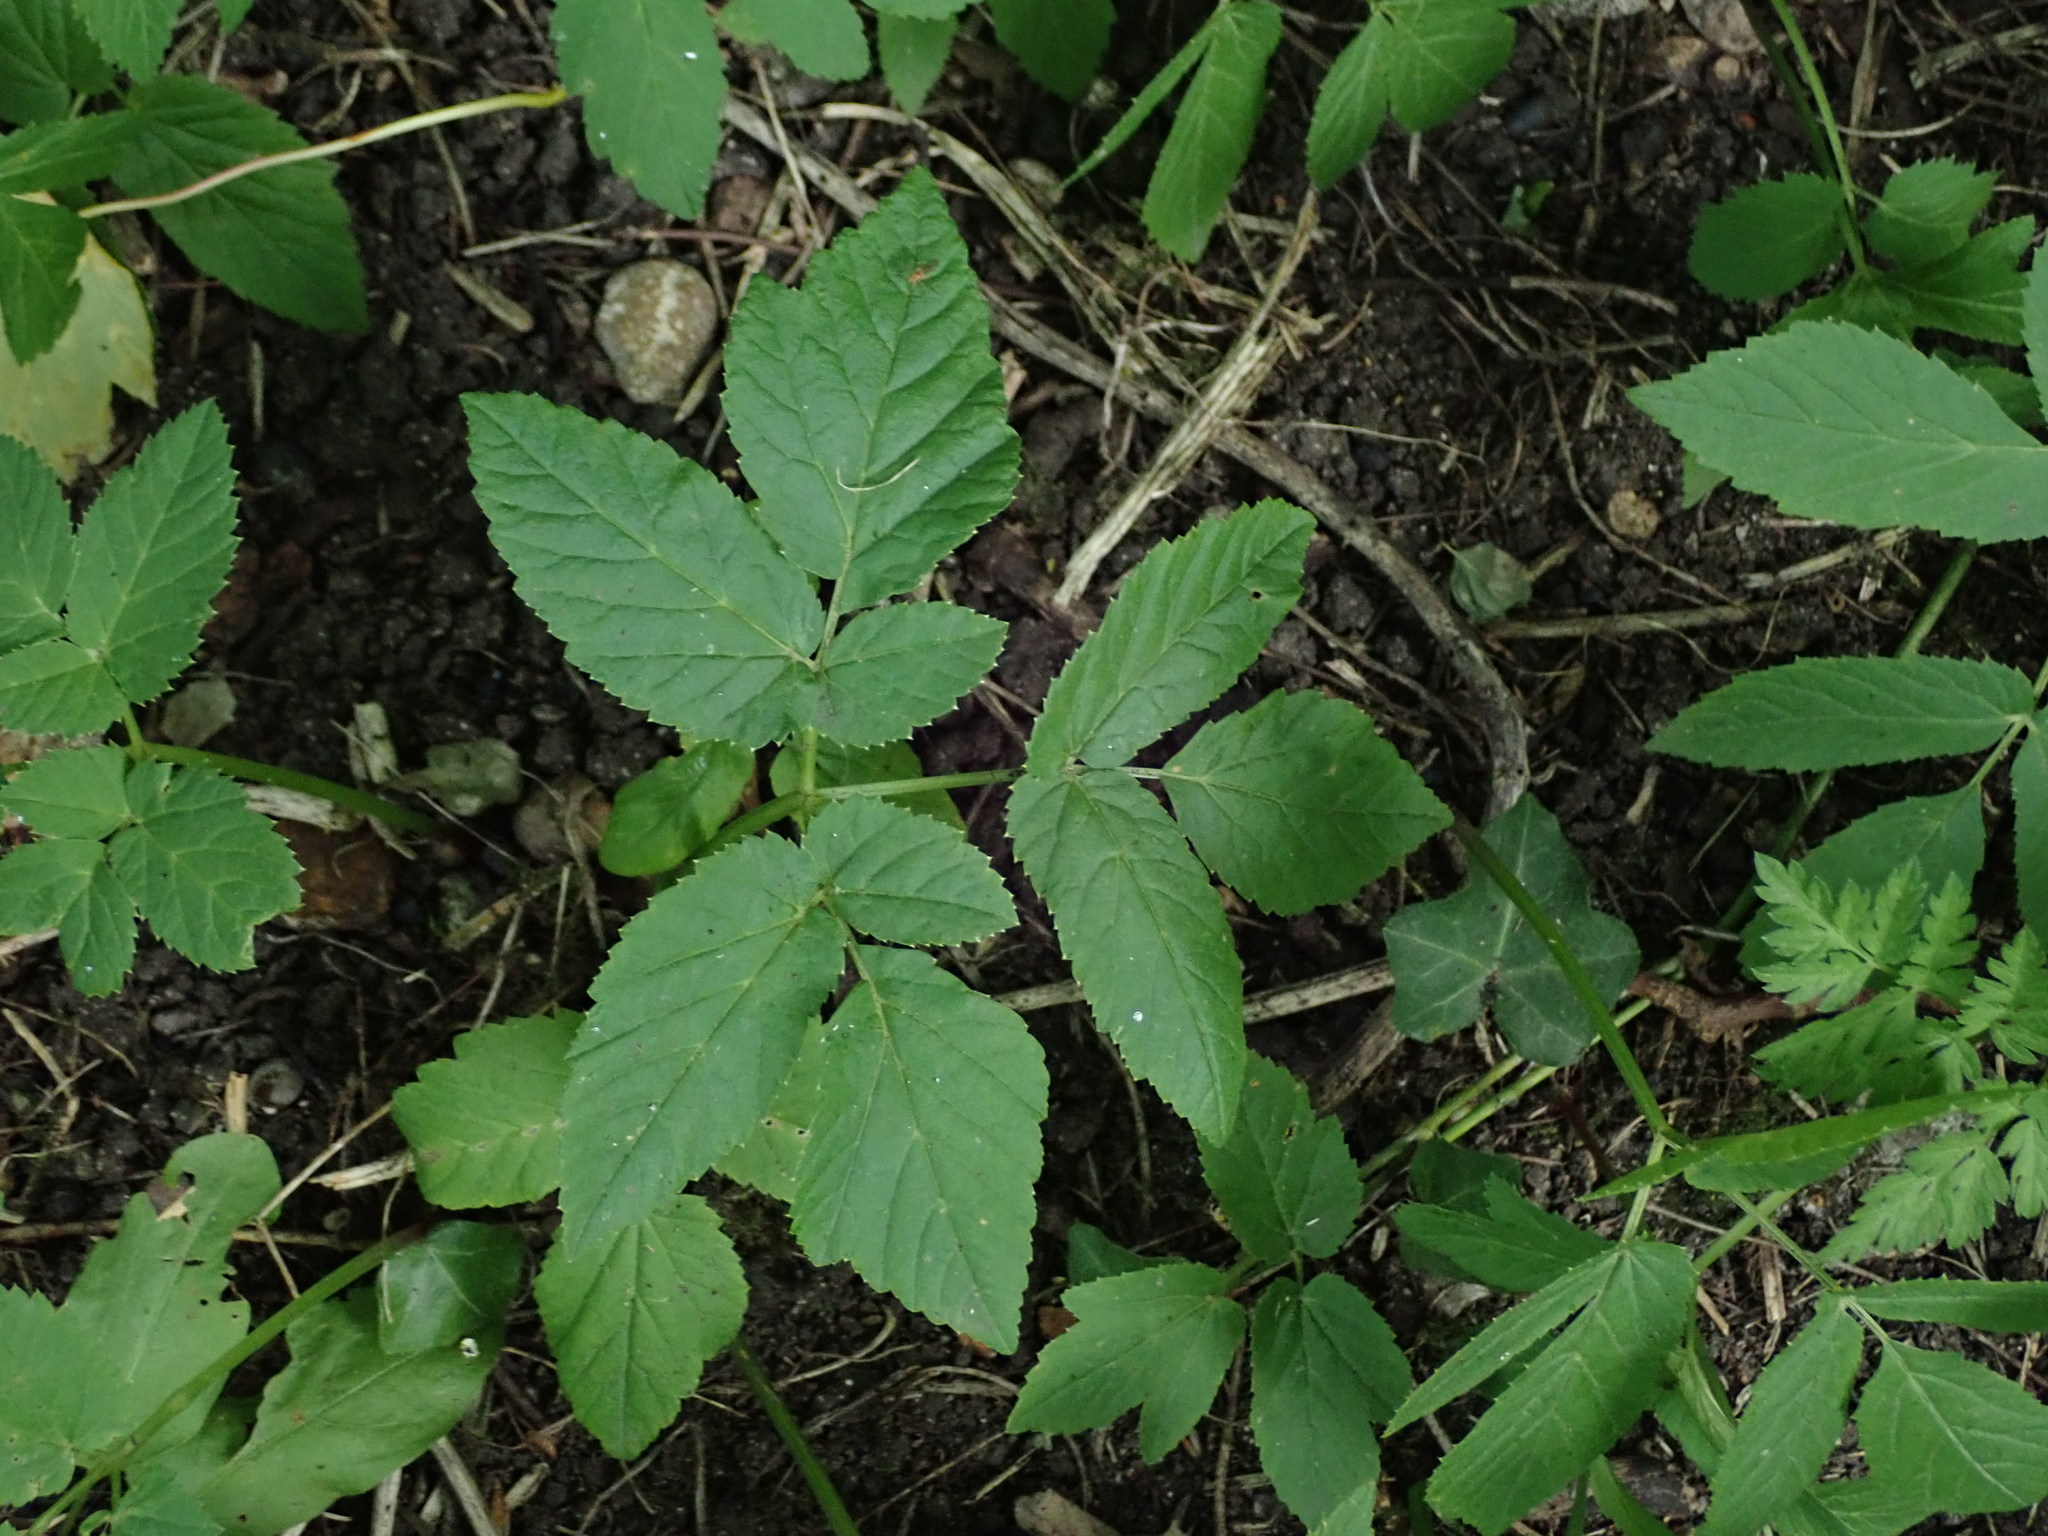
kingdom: Plantae
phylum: Tracheophyta
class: Magnoliopsida
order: Apiales
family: Apiaceae
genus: Aegopodium
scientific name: Aegopodium podagraria
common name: Ground-elder
